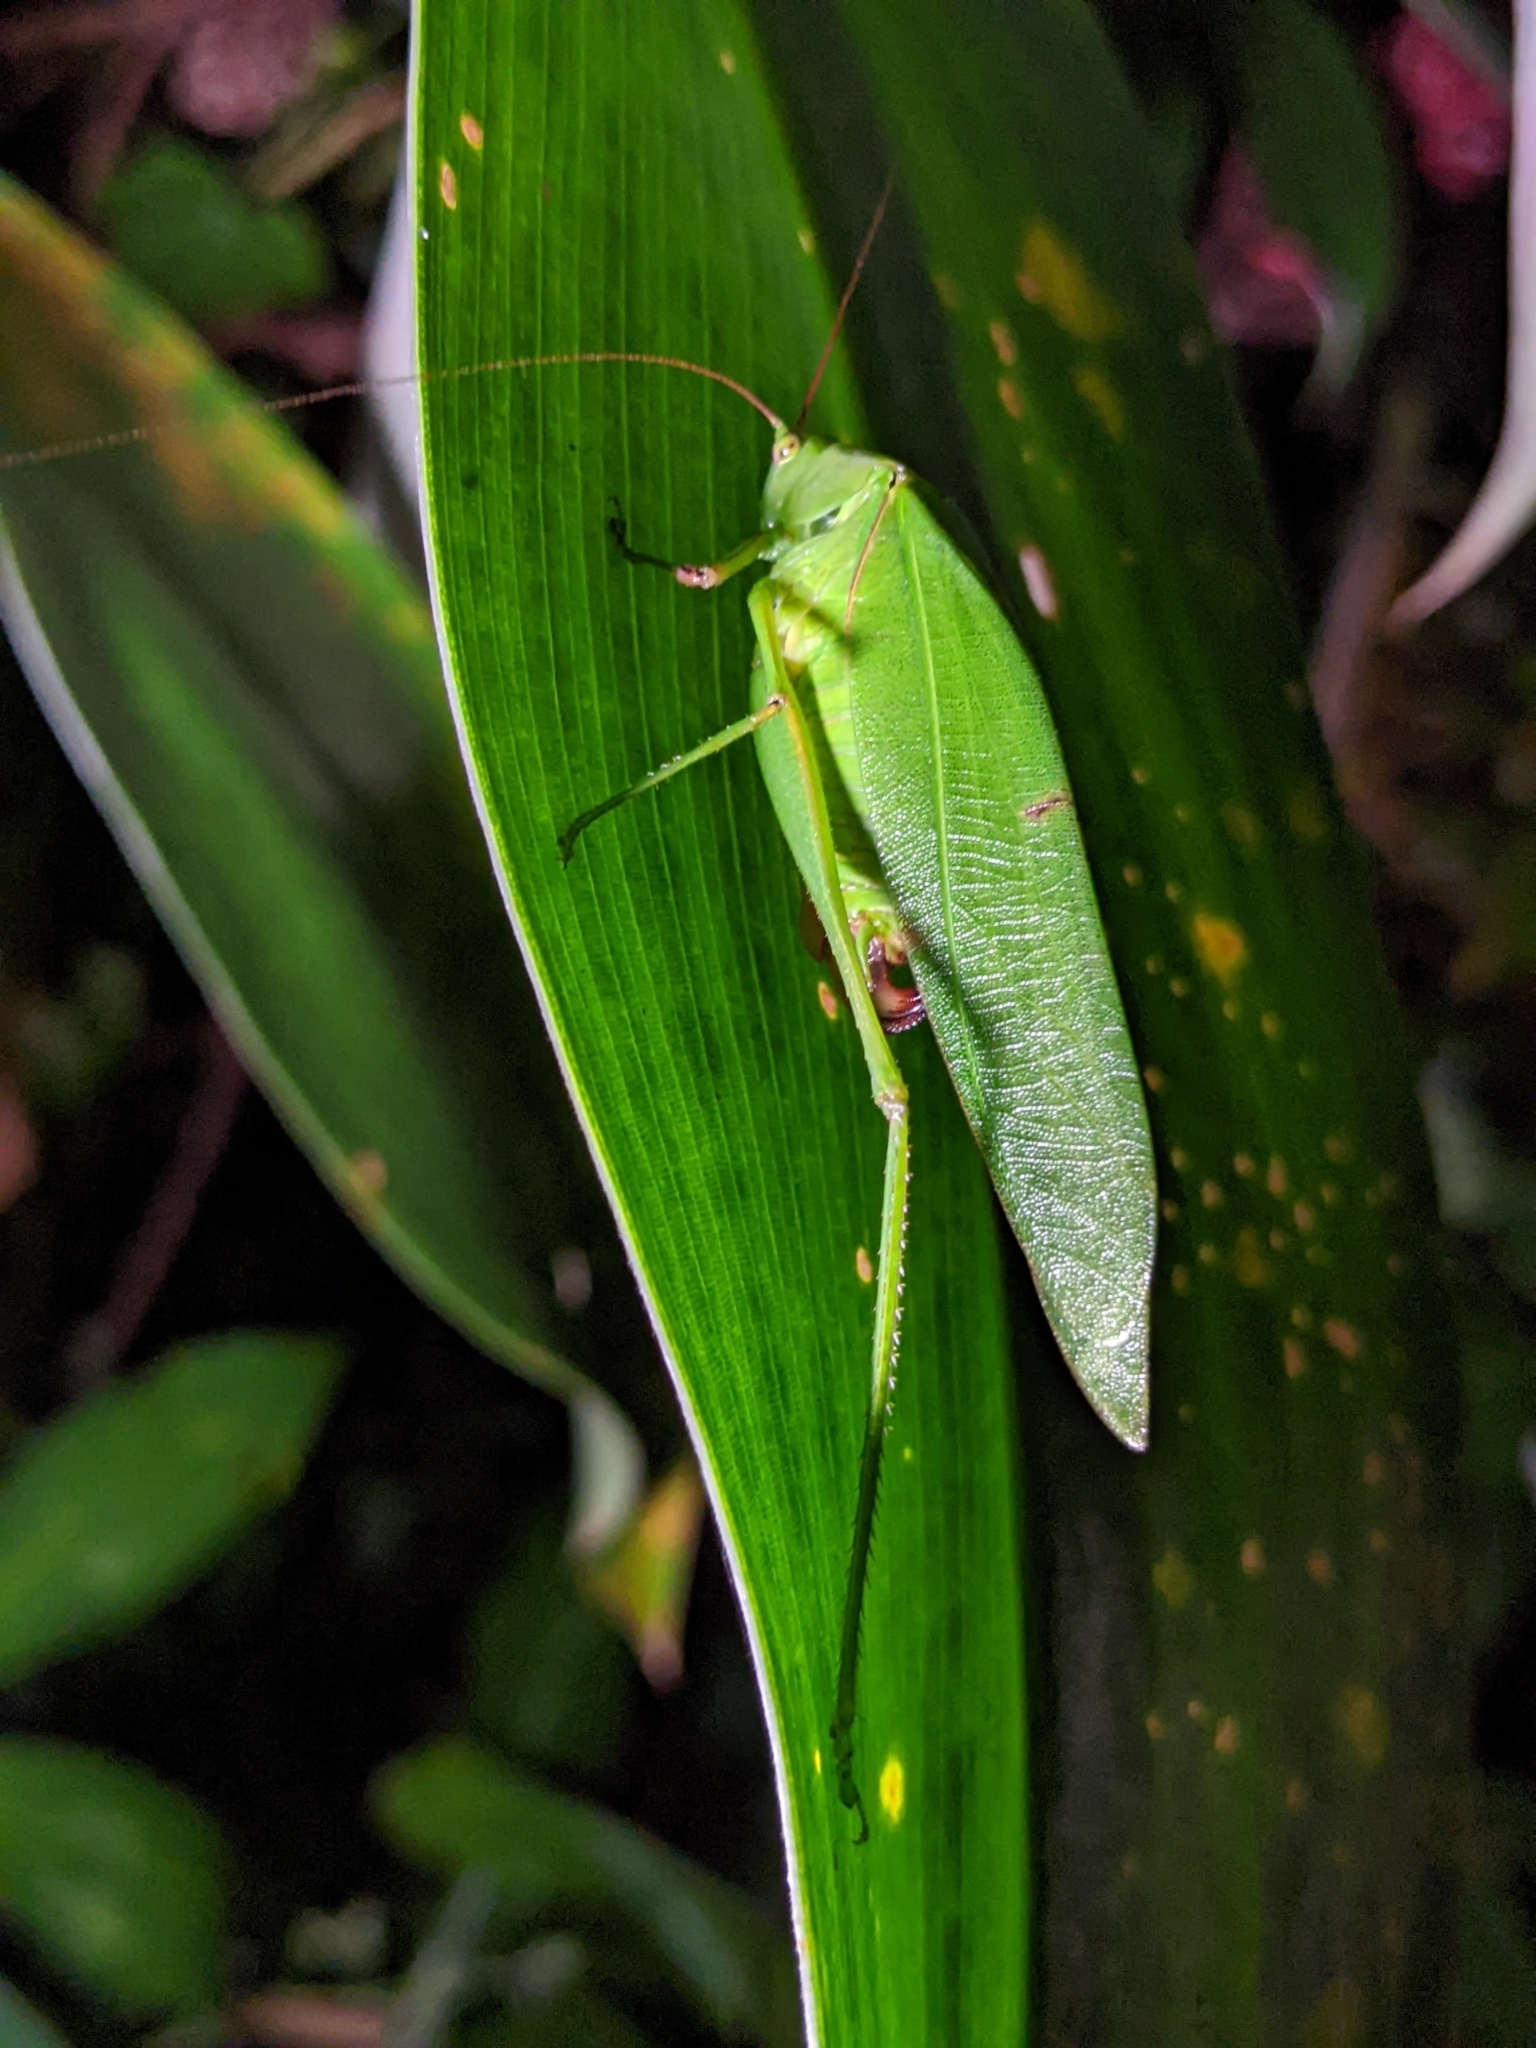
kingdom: Animalia
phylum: Arthropoda
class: Insecta
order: Orthoptera
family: Tettigoniidae
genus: Holochlora
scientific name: Holochlora signata
